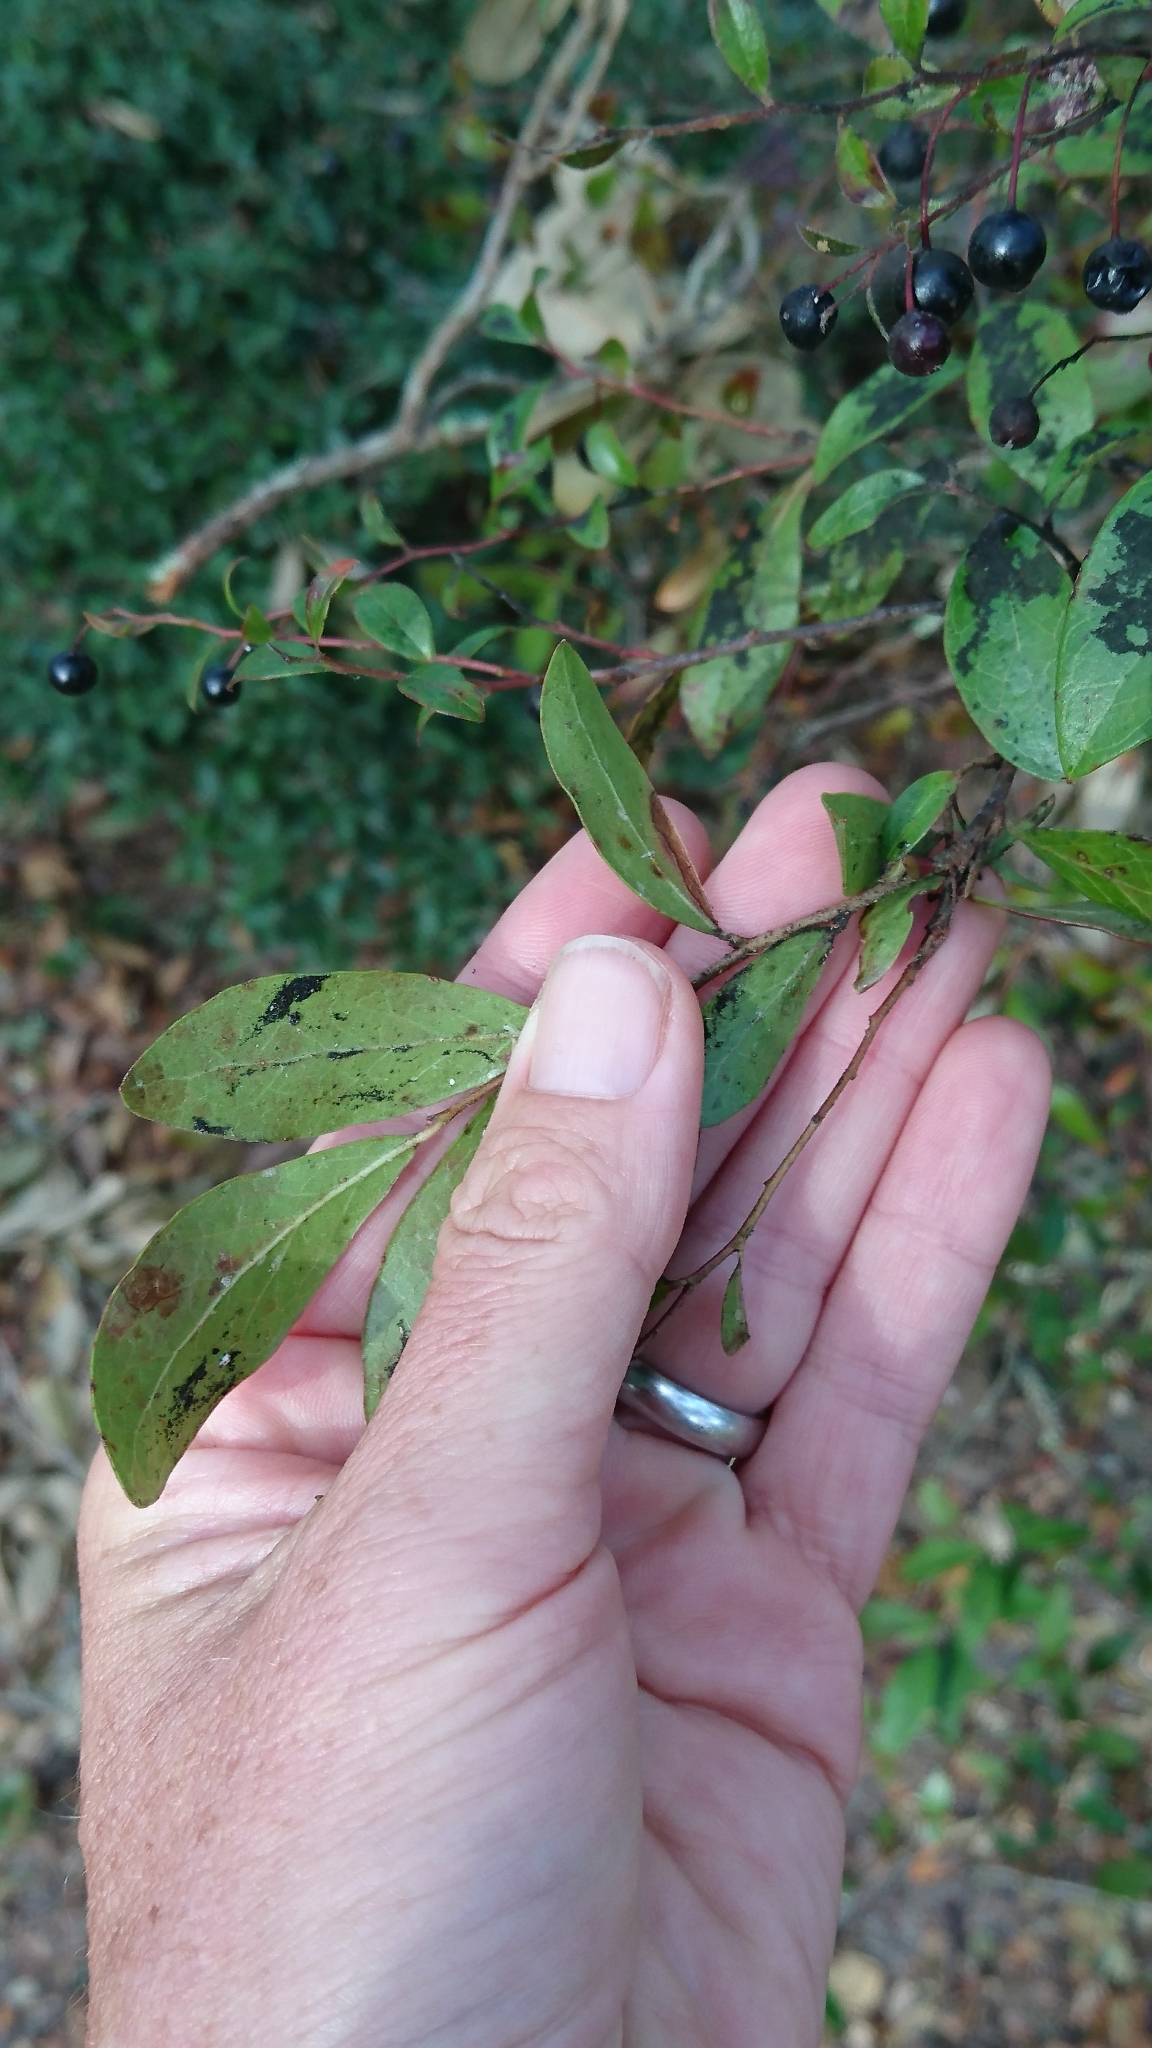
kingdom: Plantae
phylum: Tracheophyta
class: Magnoliopsida
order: Ericales
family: Ericaceae
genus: Vaccinium
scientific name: Vaccinium arboreum
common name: Farkleberry
